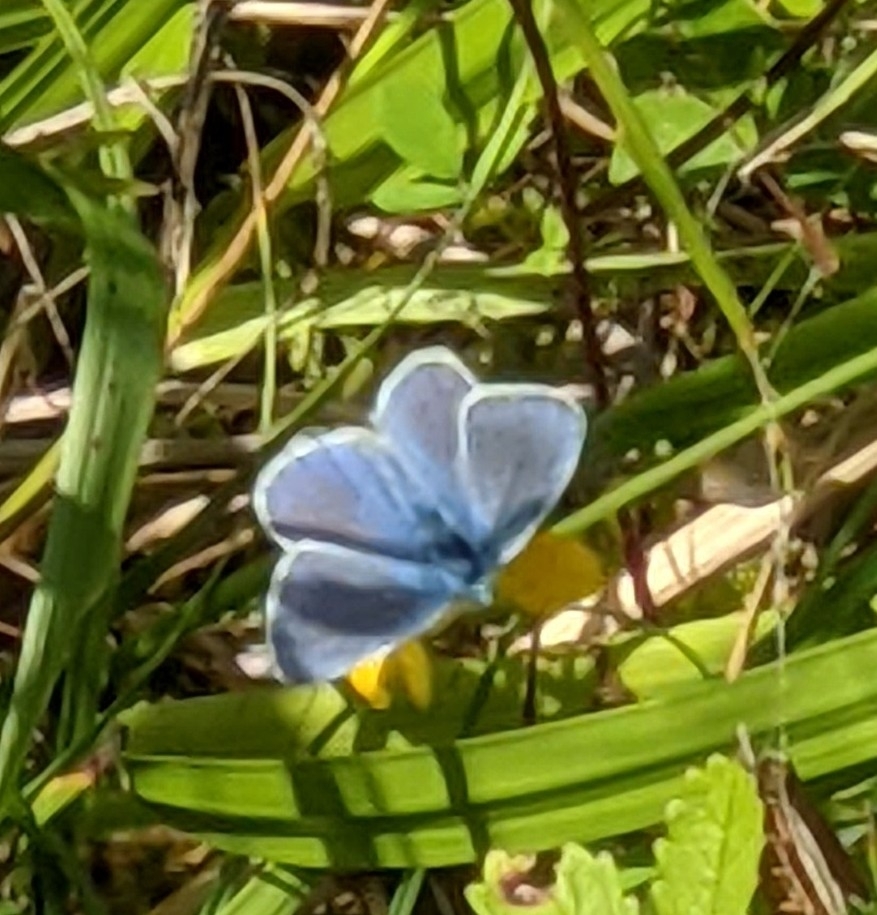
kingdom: Animalia
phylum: Arthropoda
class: Insecta
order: Lepidoptera
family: Lycaenidae
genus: Polyommatus
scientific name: Polyommatus icarus
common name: Common blue
